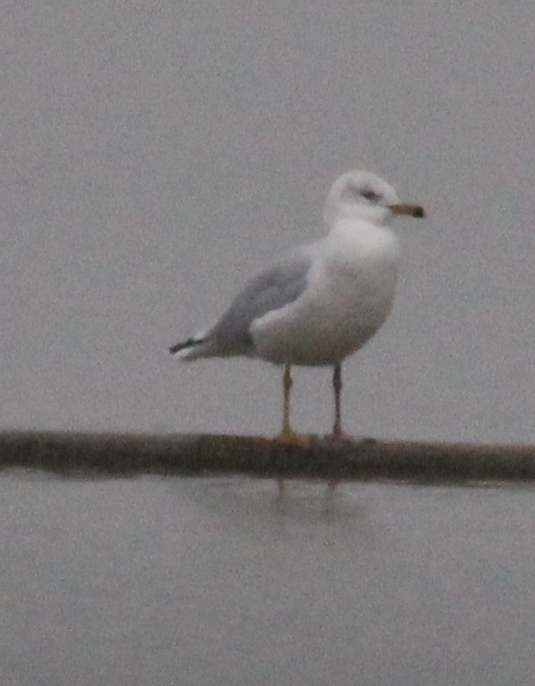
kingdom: Animalia
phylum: Chordata
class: Aves
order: Charadriiformes
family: Laridae
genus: Larus
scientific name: Larus delawarensis
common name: Ring-billed gull
